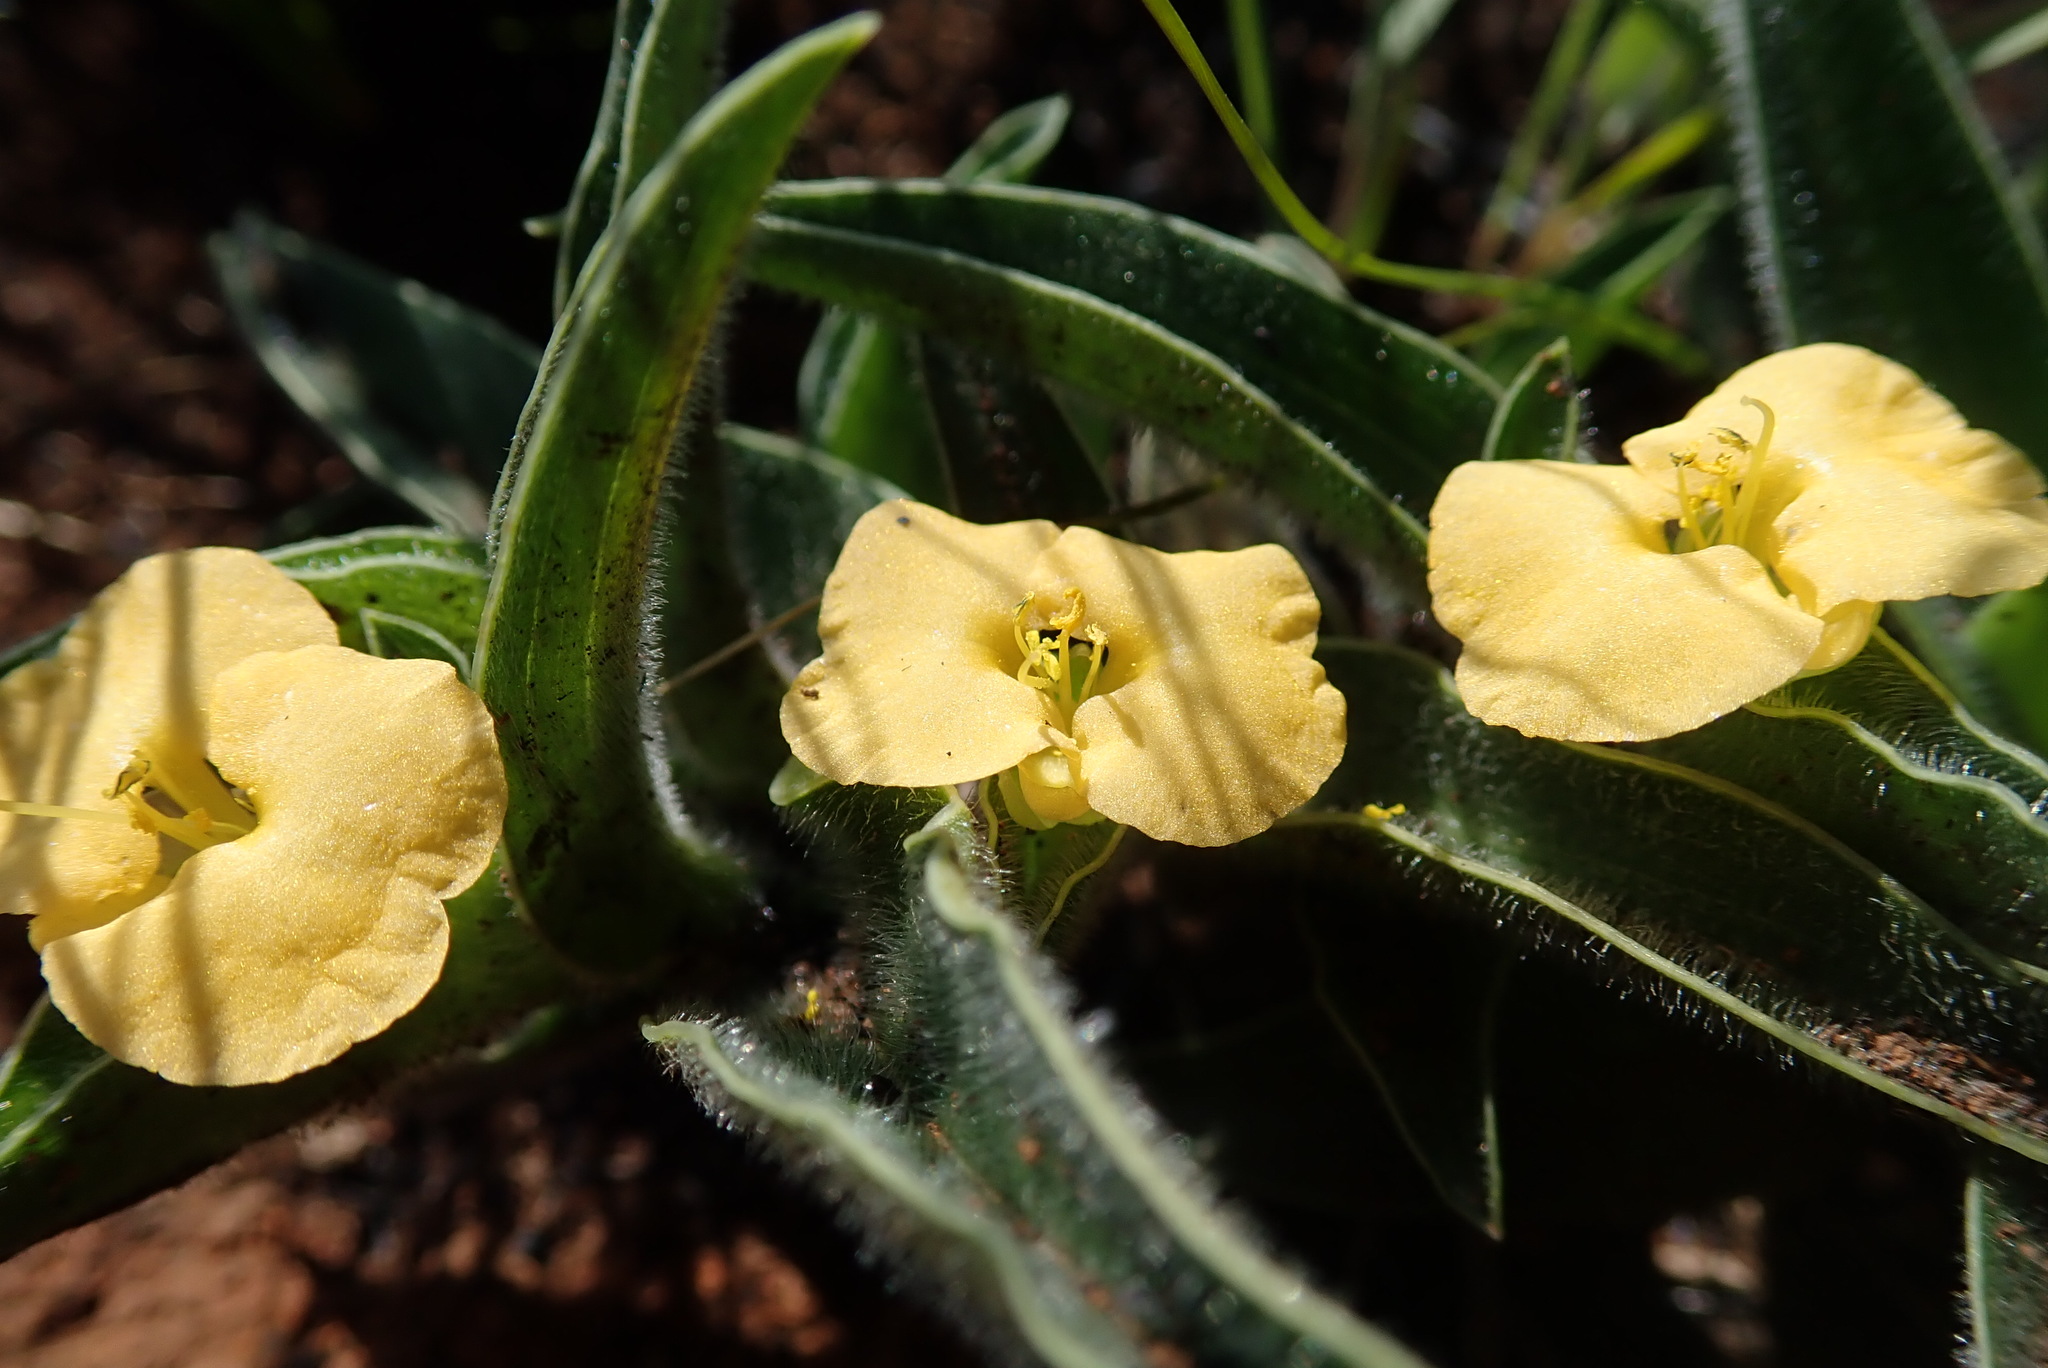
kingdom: Plantae
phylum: Tracheophyta
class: Liliopsida
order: Commelinales
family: Commelinaceae
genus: Commelina
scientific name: Commelina africana
